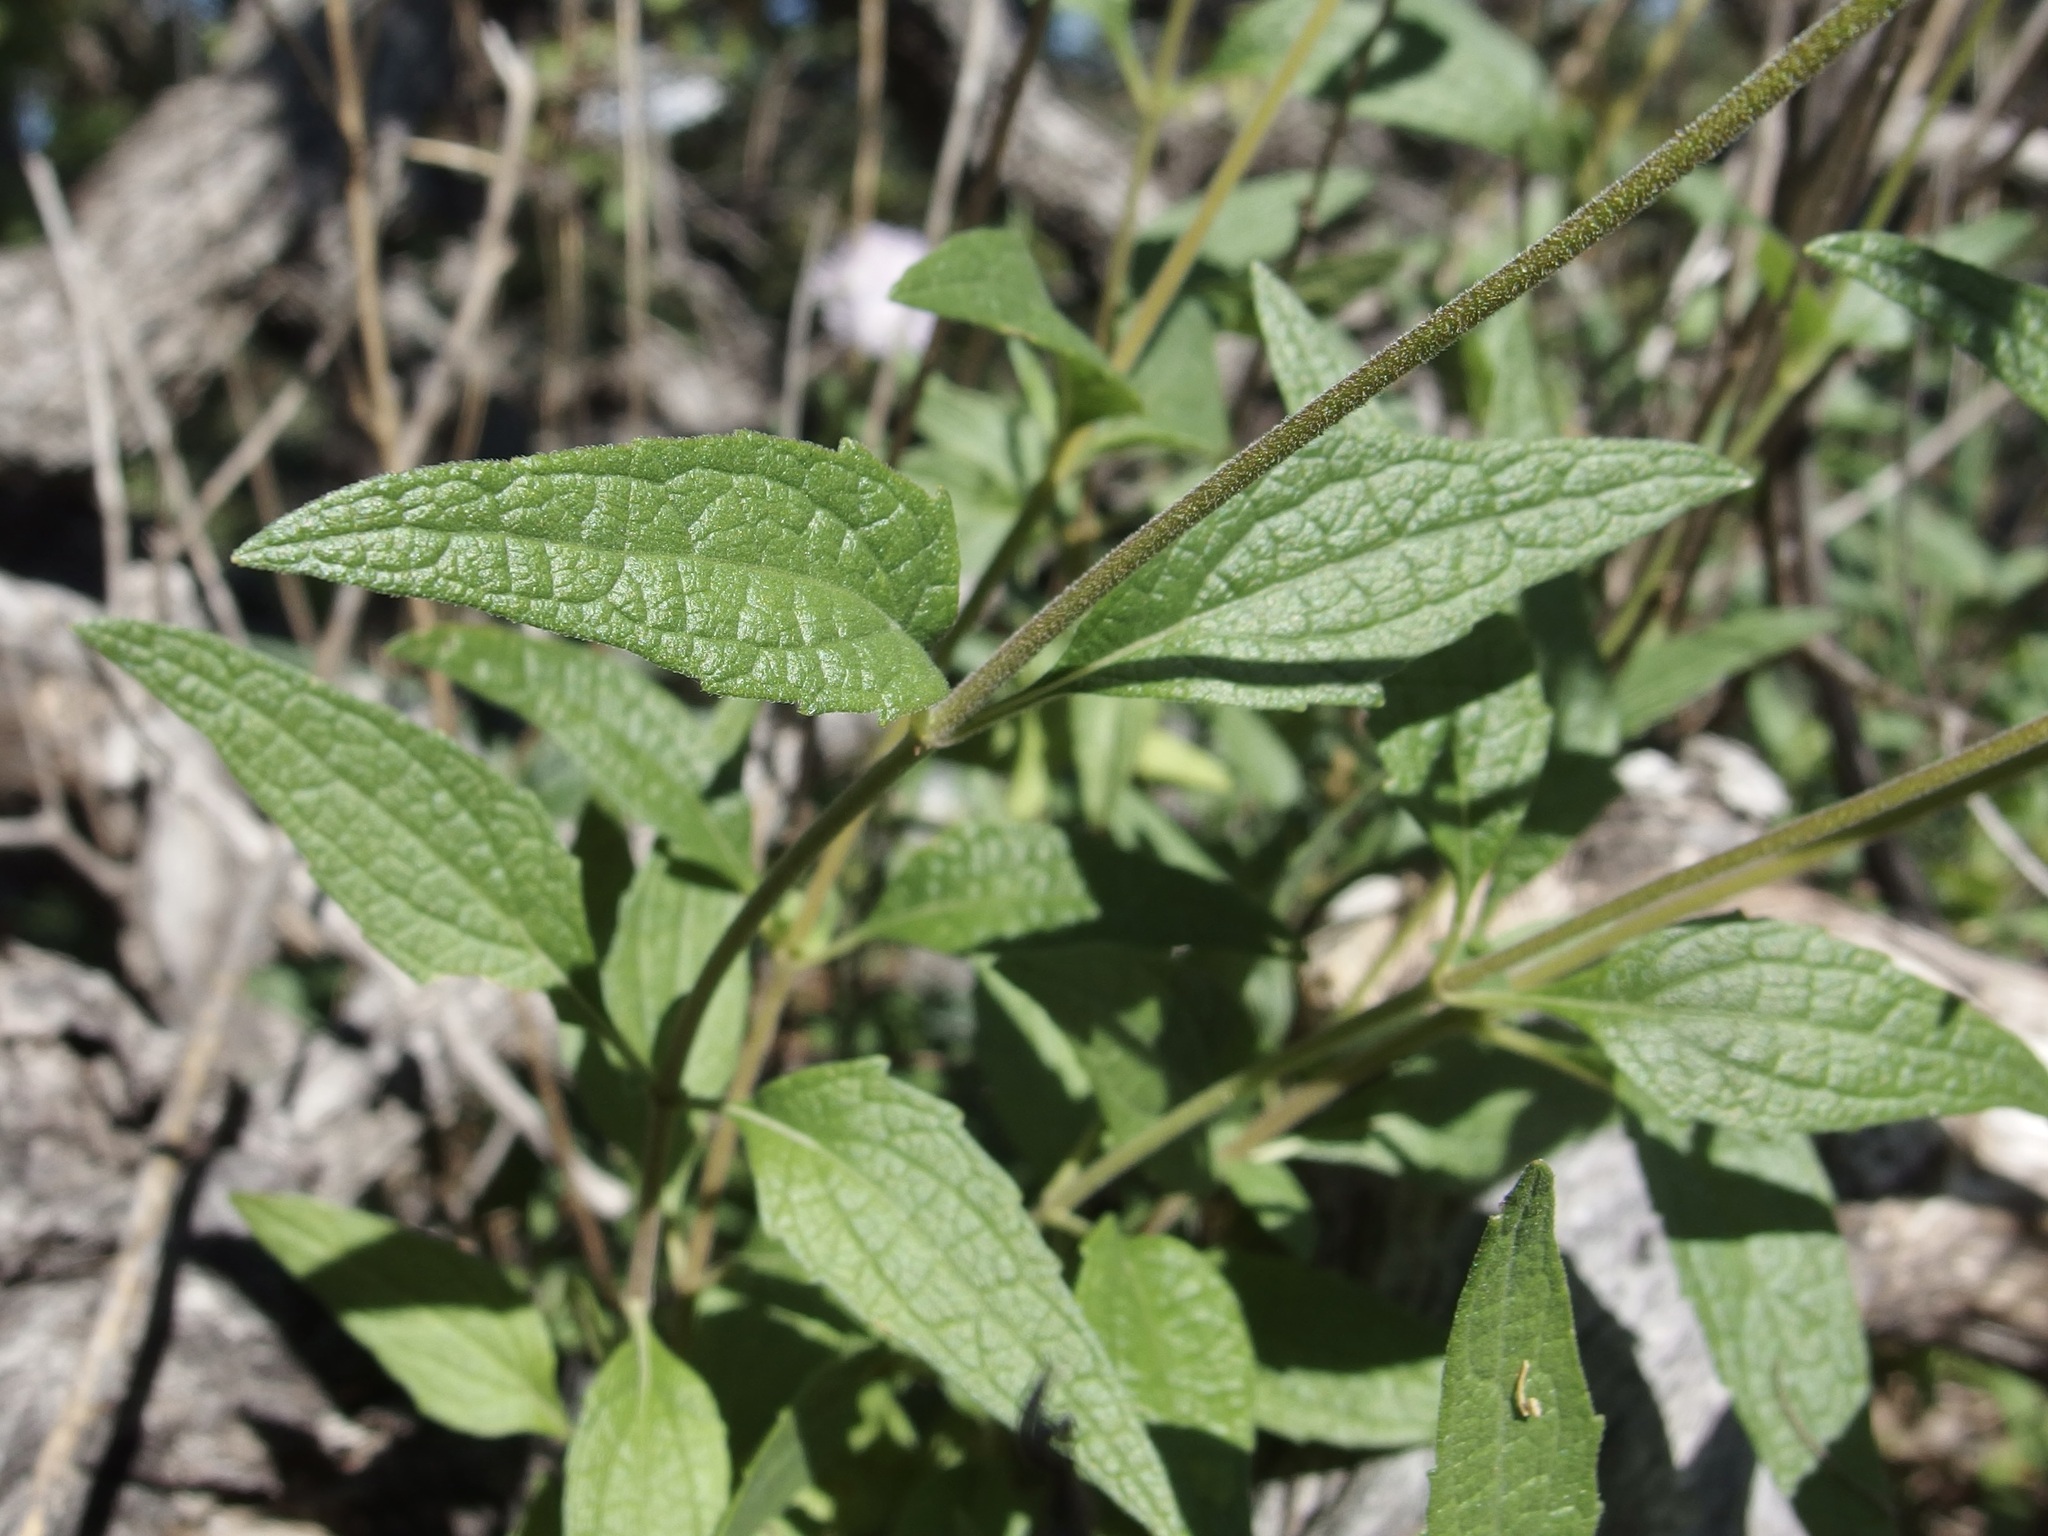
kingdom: Plantae
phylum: Tracheophyta
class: Magnoliopsida
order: Asterales
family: Asteraceae
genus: Ageratum
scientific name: Ageratum corymbosum
